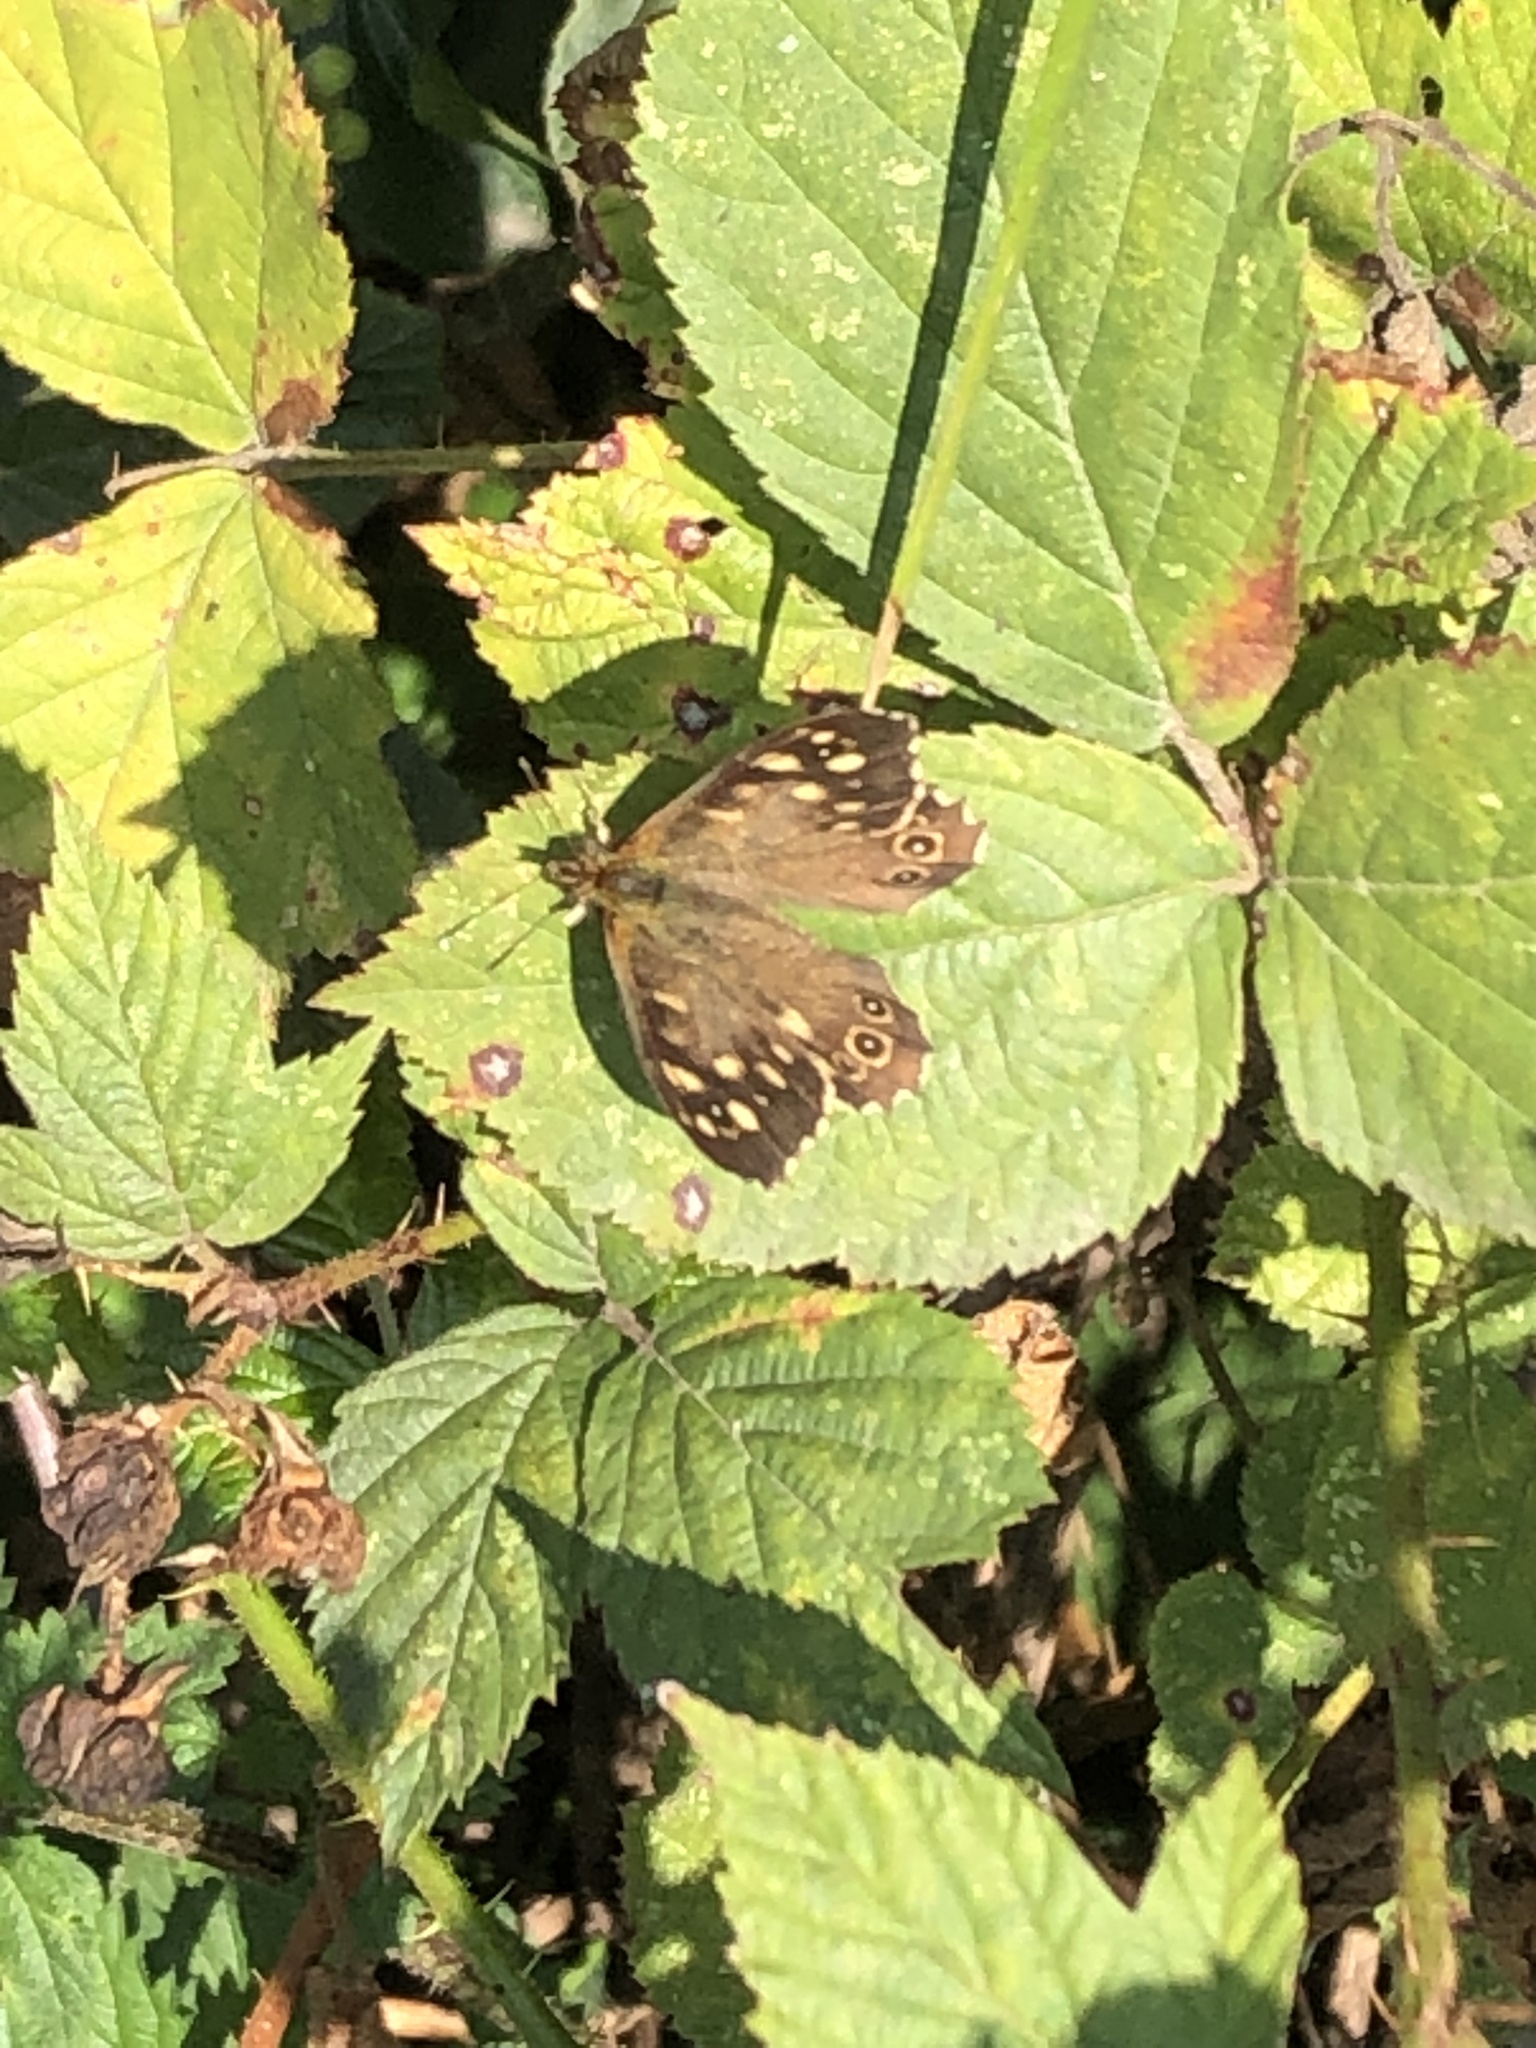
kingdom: Animalia
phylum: Arthropoda
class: Insecta
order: Lepidoptera
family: Nymphalidae
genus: Pararge
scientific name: Pararge aegeria
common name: Speckled wood
